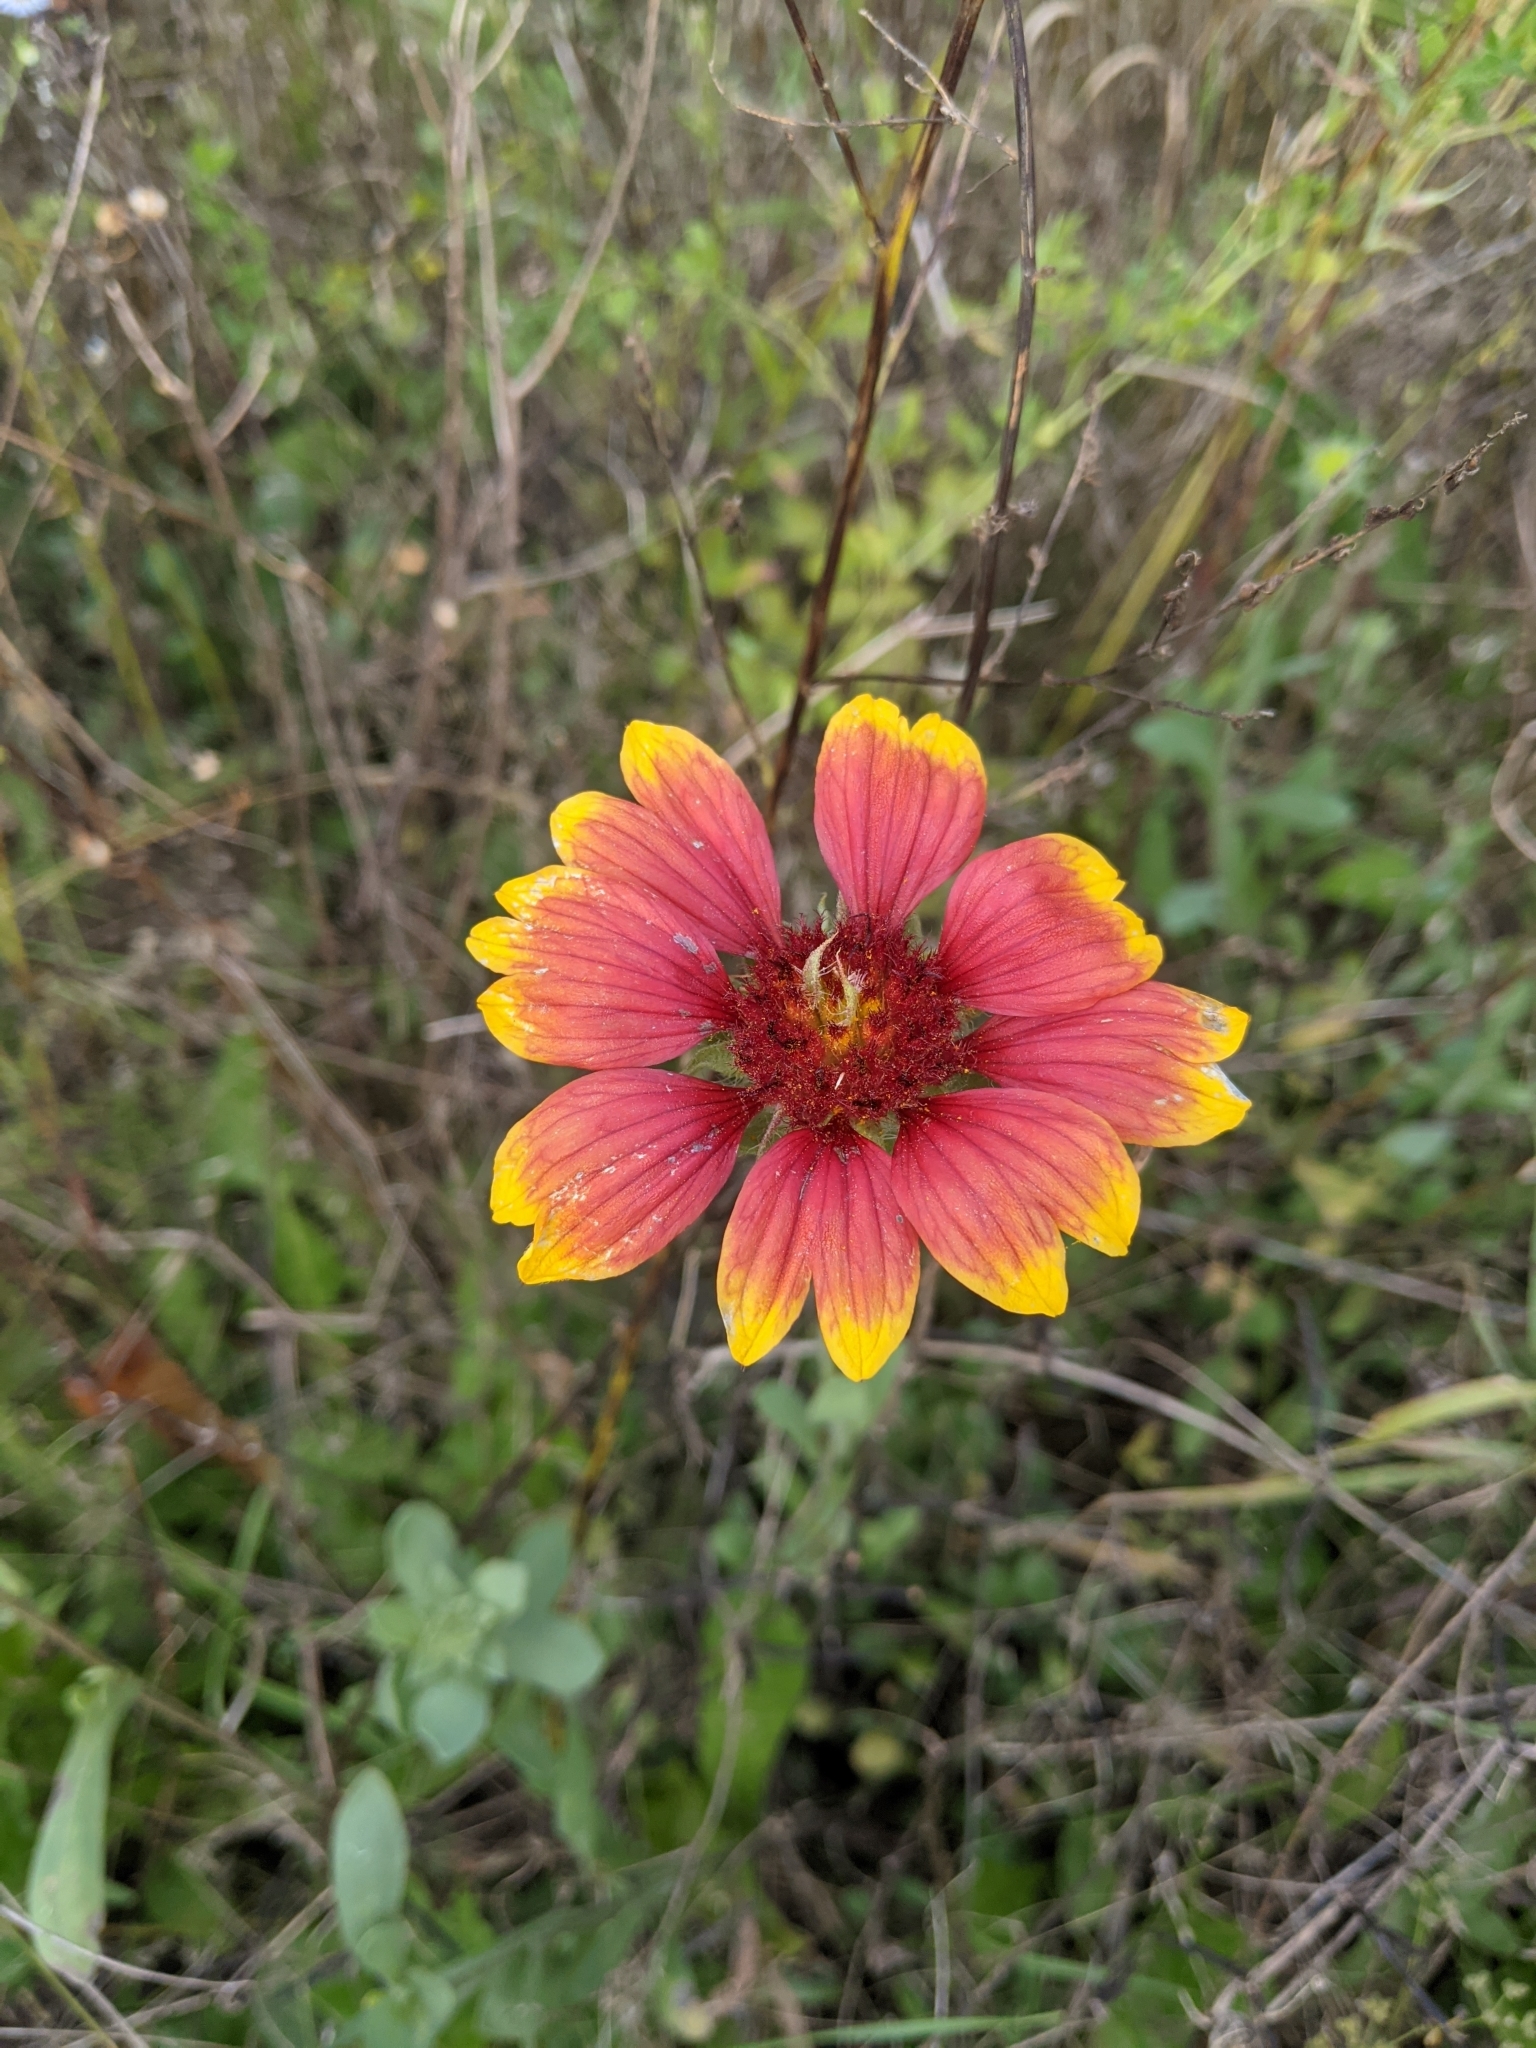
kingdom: Plantae
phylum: Tracheophyta
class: Magnoliopsida
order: Asterales
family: Asteraceae
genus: Gaillardia
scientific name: Gaillardia pulchella
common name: Firewheel
